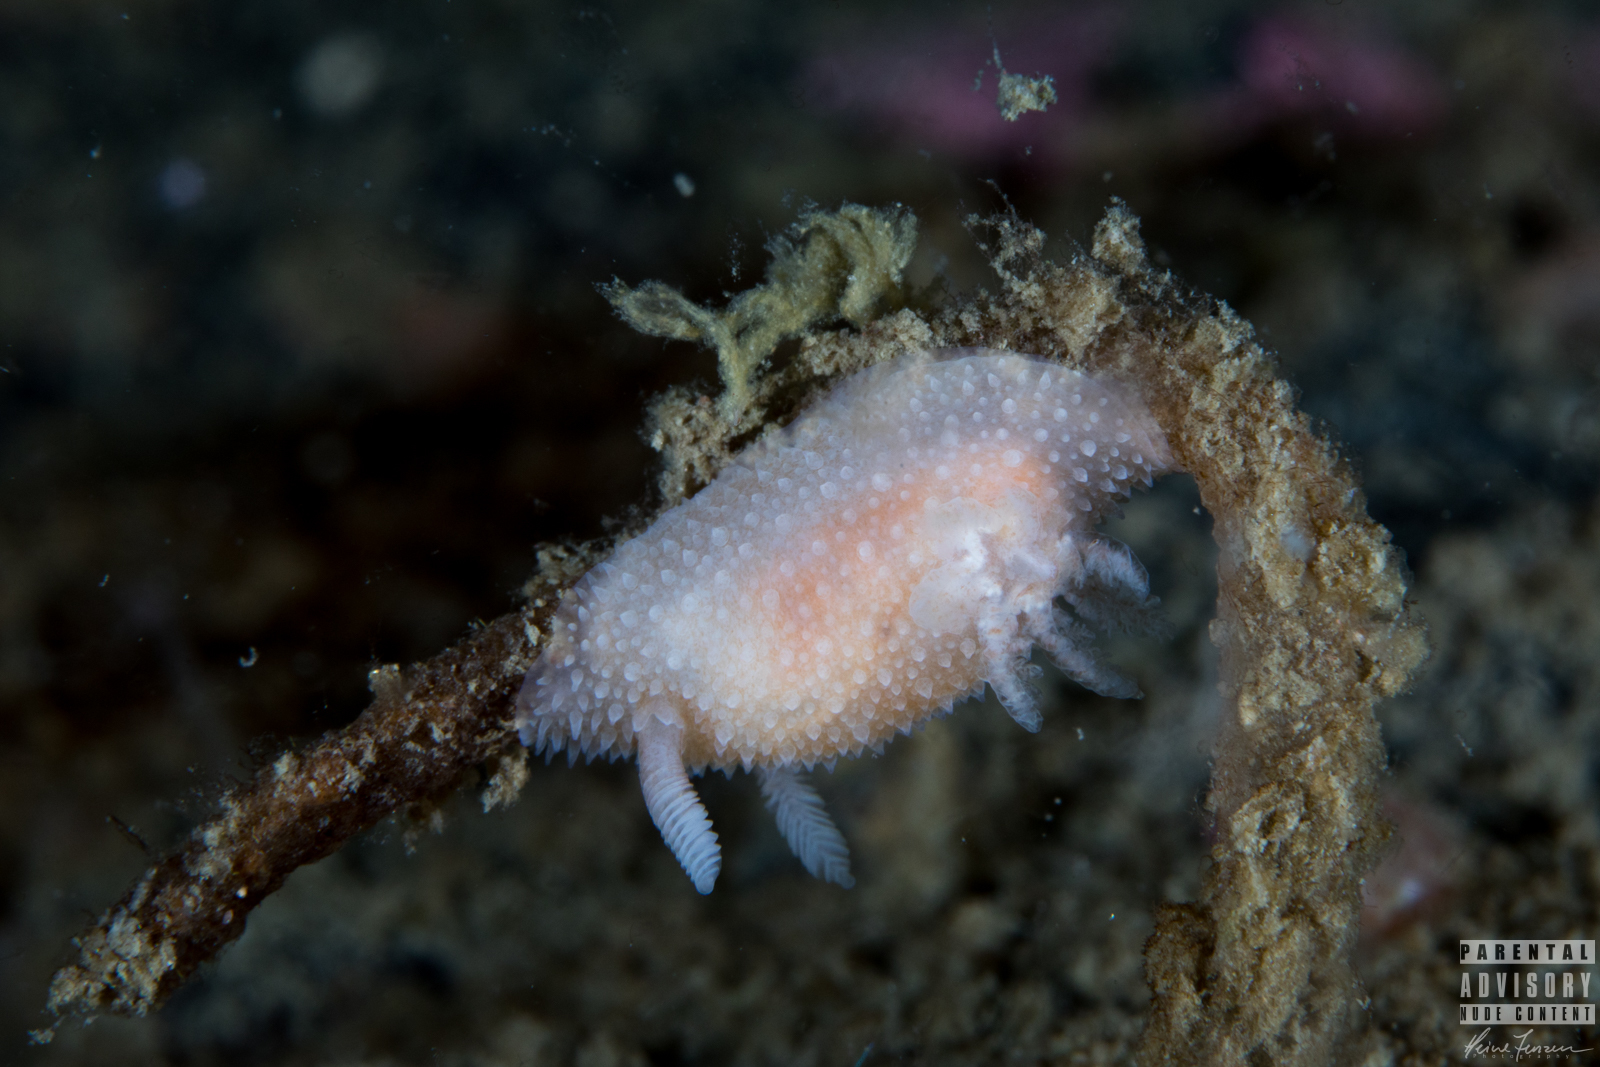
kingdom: Animalia
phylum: Mollusca
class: Gastropoda
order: Nudibranchia
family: Onchidorididae
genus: Acanthodoris
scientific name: Acanthodoris pilosa
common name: Hairy spiny doris
